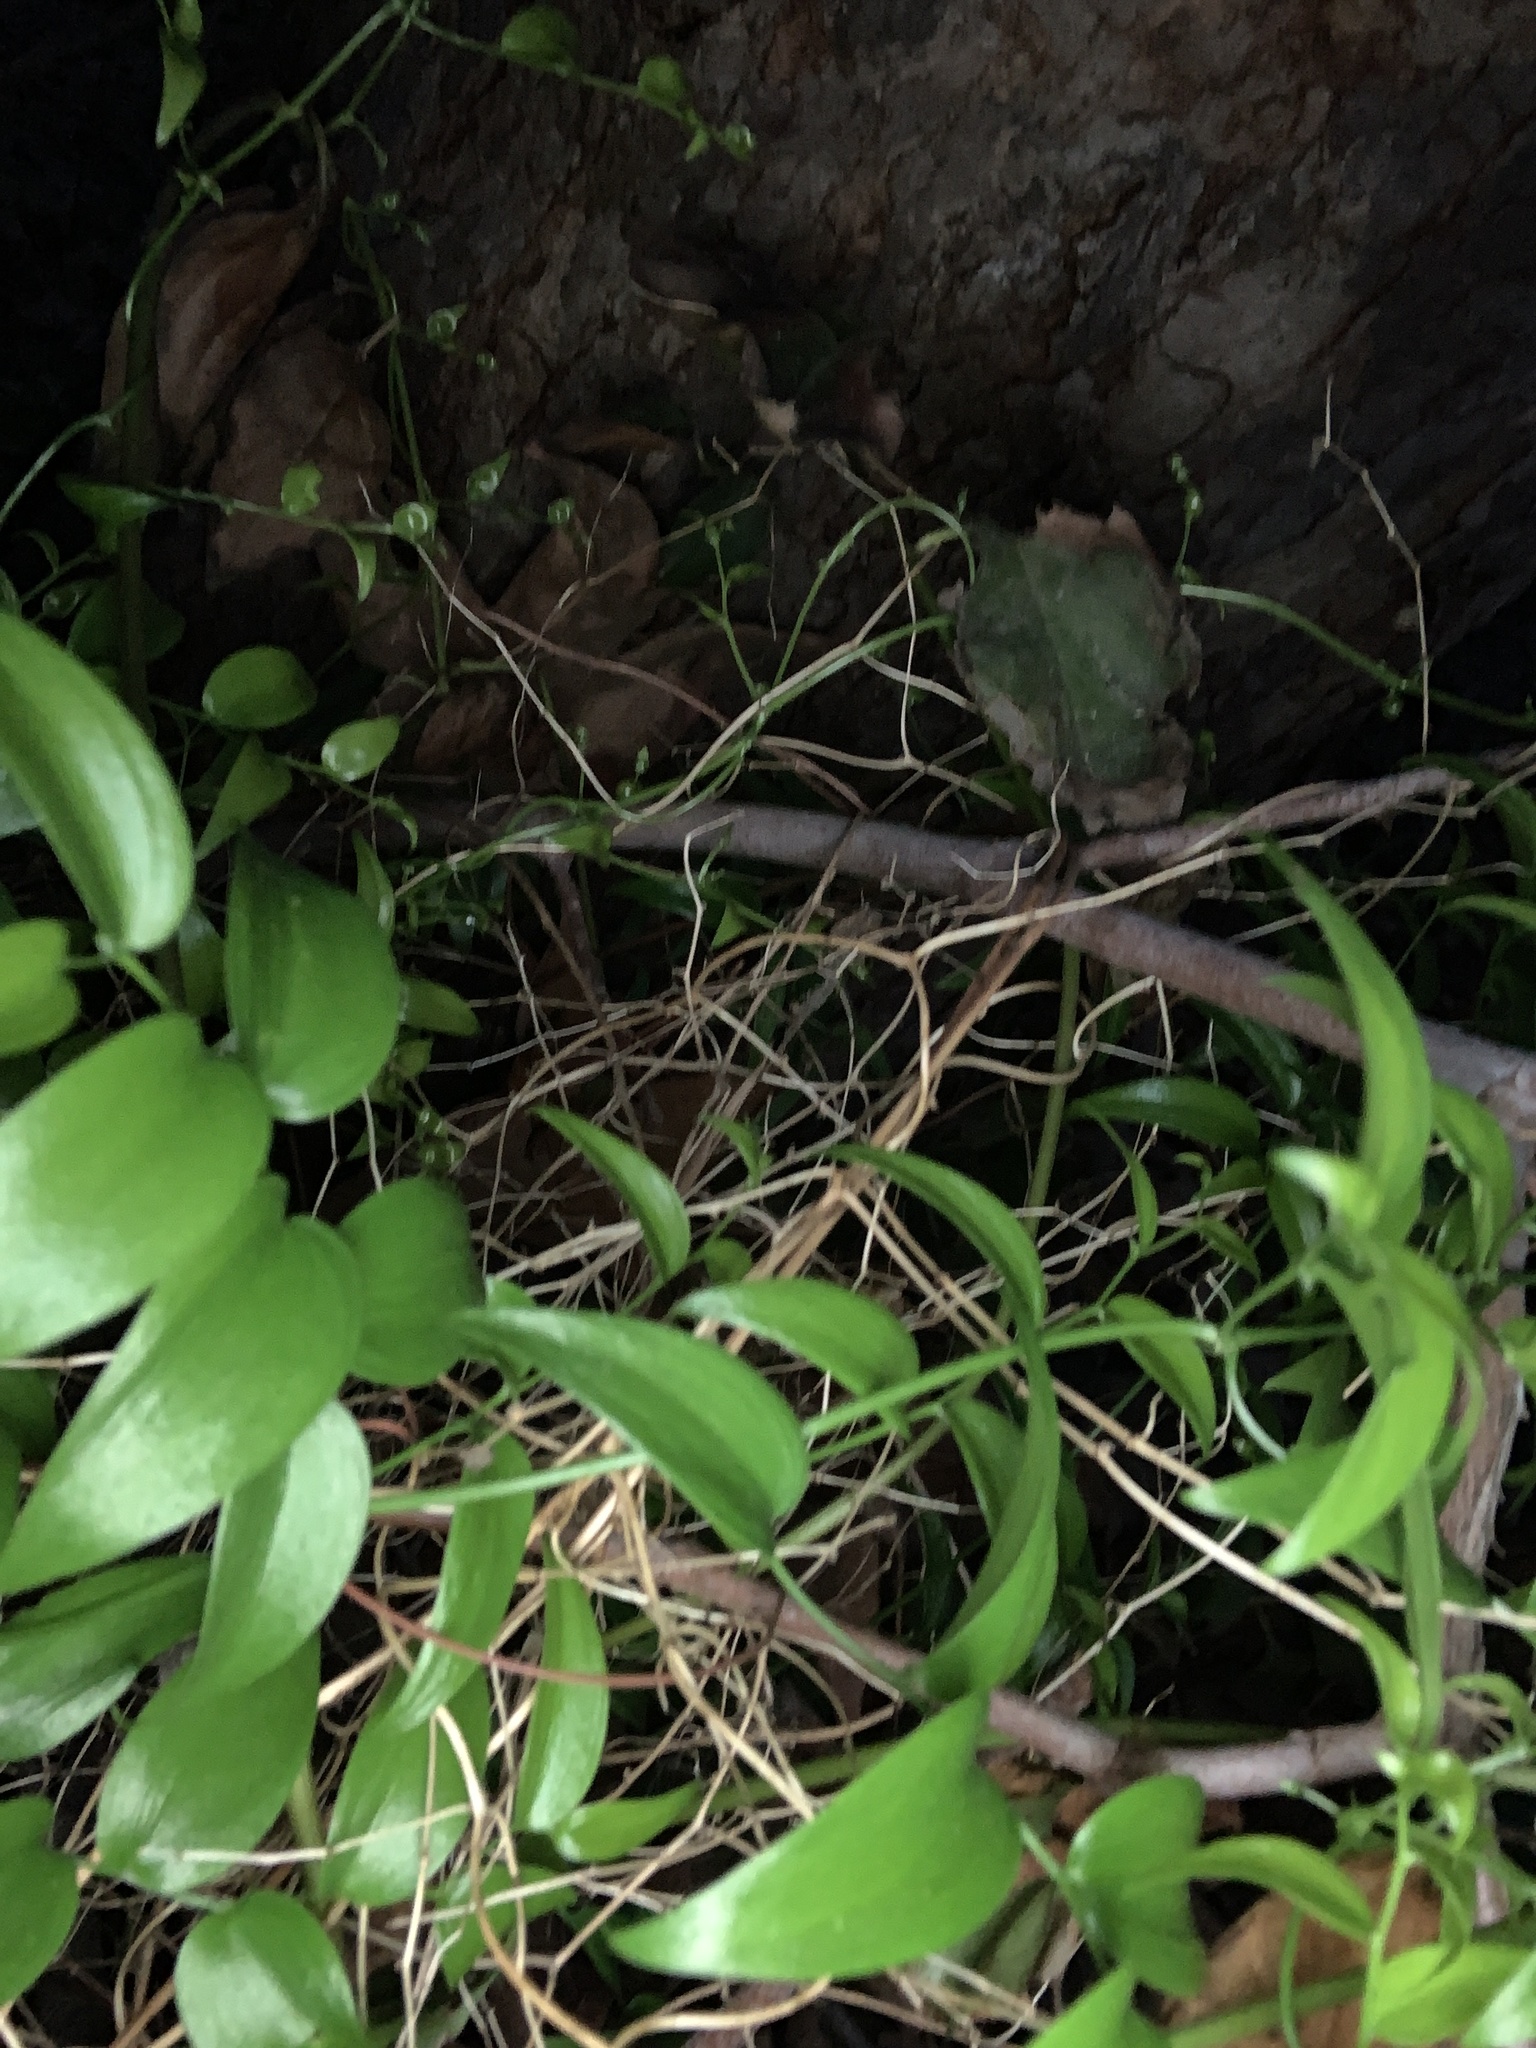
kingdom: Plantae
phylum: Tracheophyta
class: Liliopsida
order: Asparagales
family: Asparagaceae
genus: Asparagus
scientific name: Asparagus asparagoides
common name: African asparagus fern
